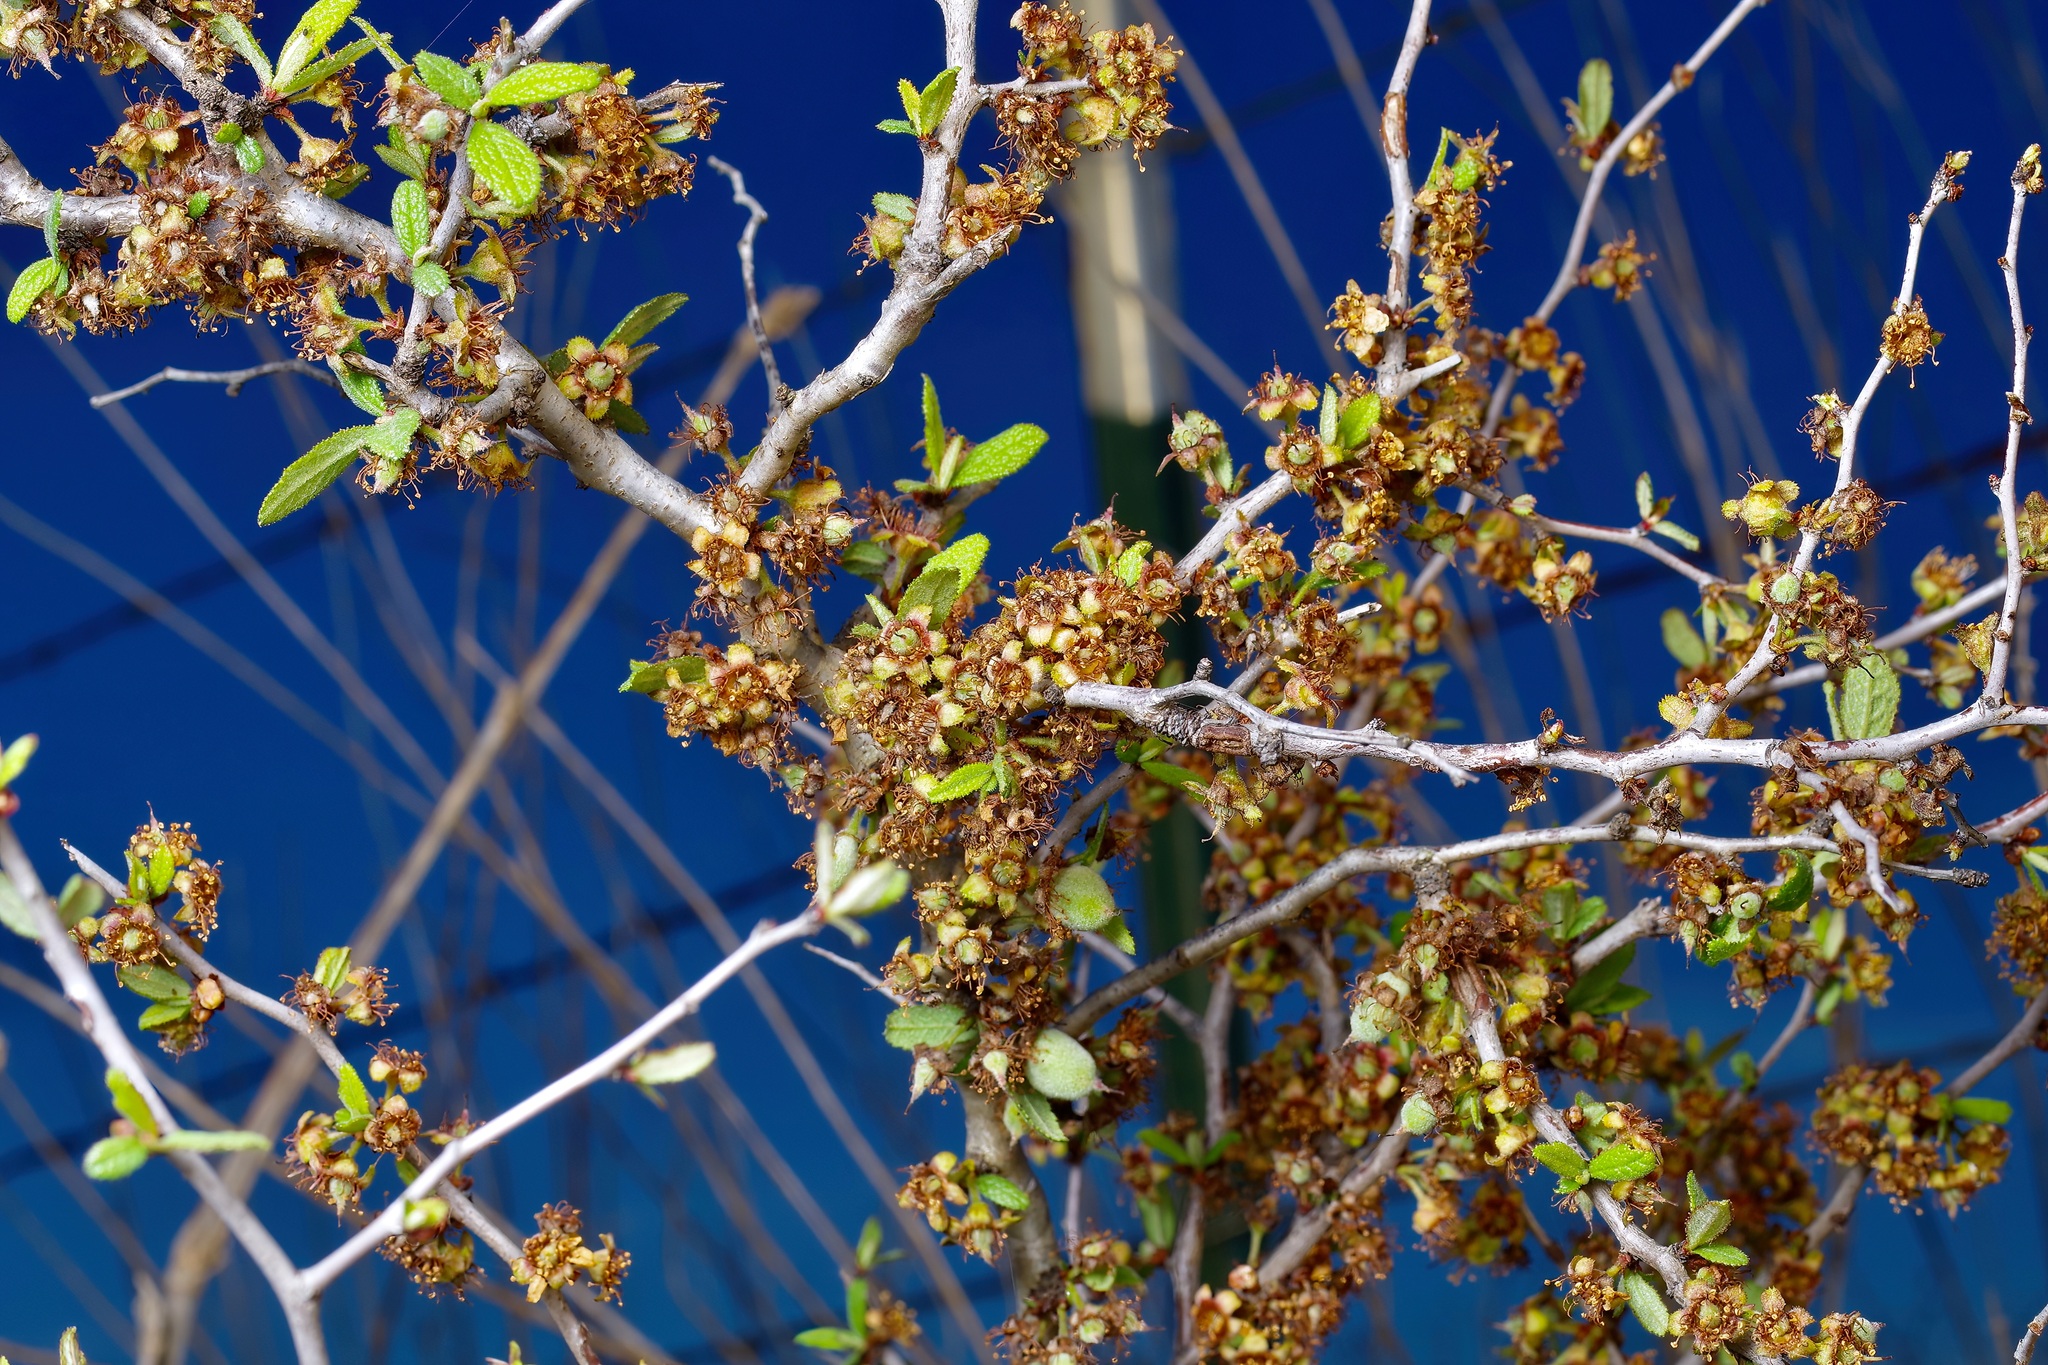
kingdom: Plantae
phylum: Tracheophyta
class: Magnoliopsida
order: Rosales
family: Rosaceae
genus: Prunus
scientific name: Prunus texana
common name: Texas almond cherry
